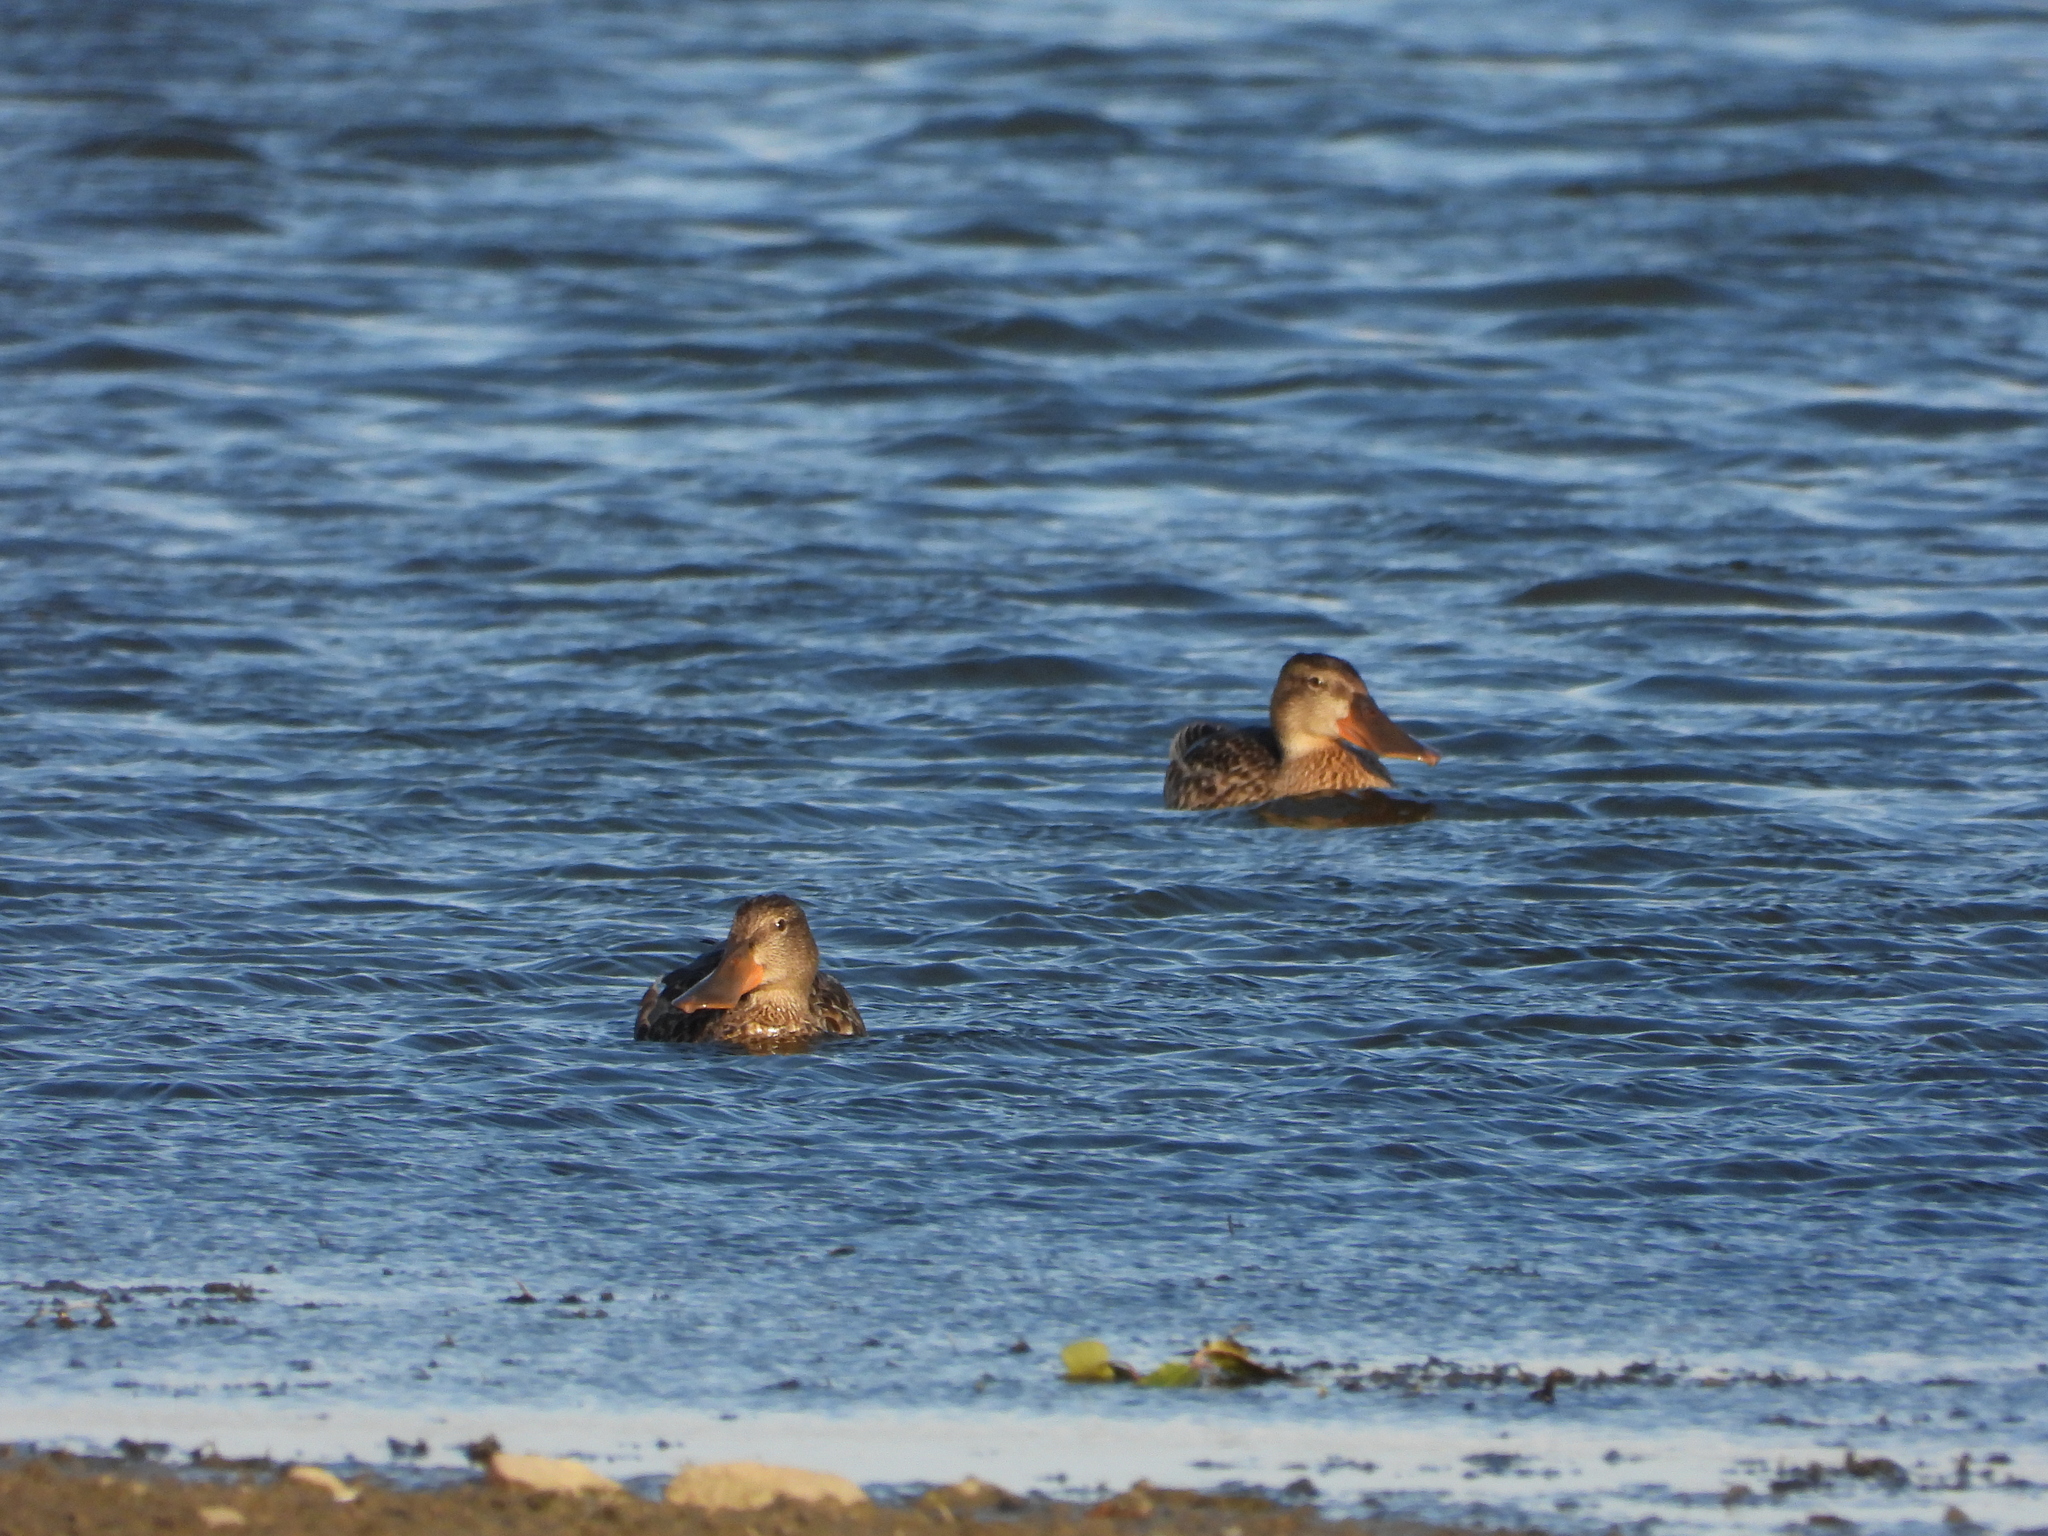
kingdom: Animalia
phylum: Chordata
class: Aves
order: Anseriformes
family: Anatidae
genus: Spatula
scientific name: Spatula clypeata
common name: Northern shoveler
